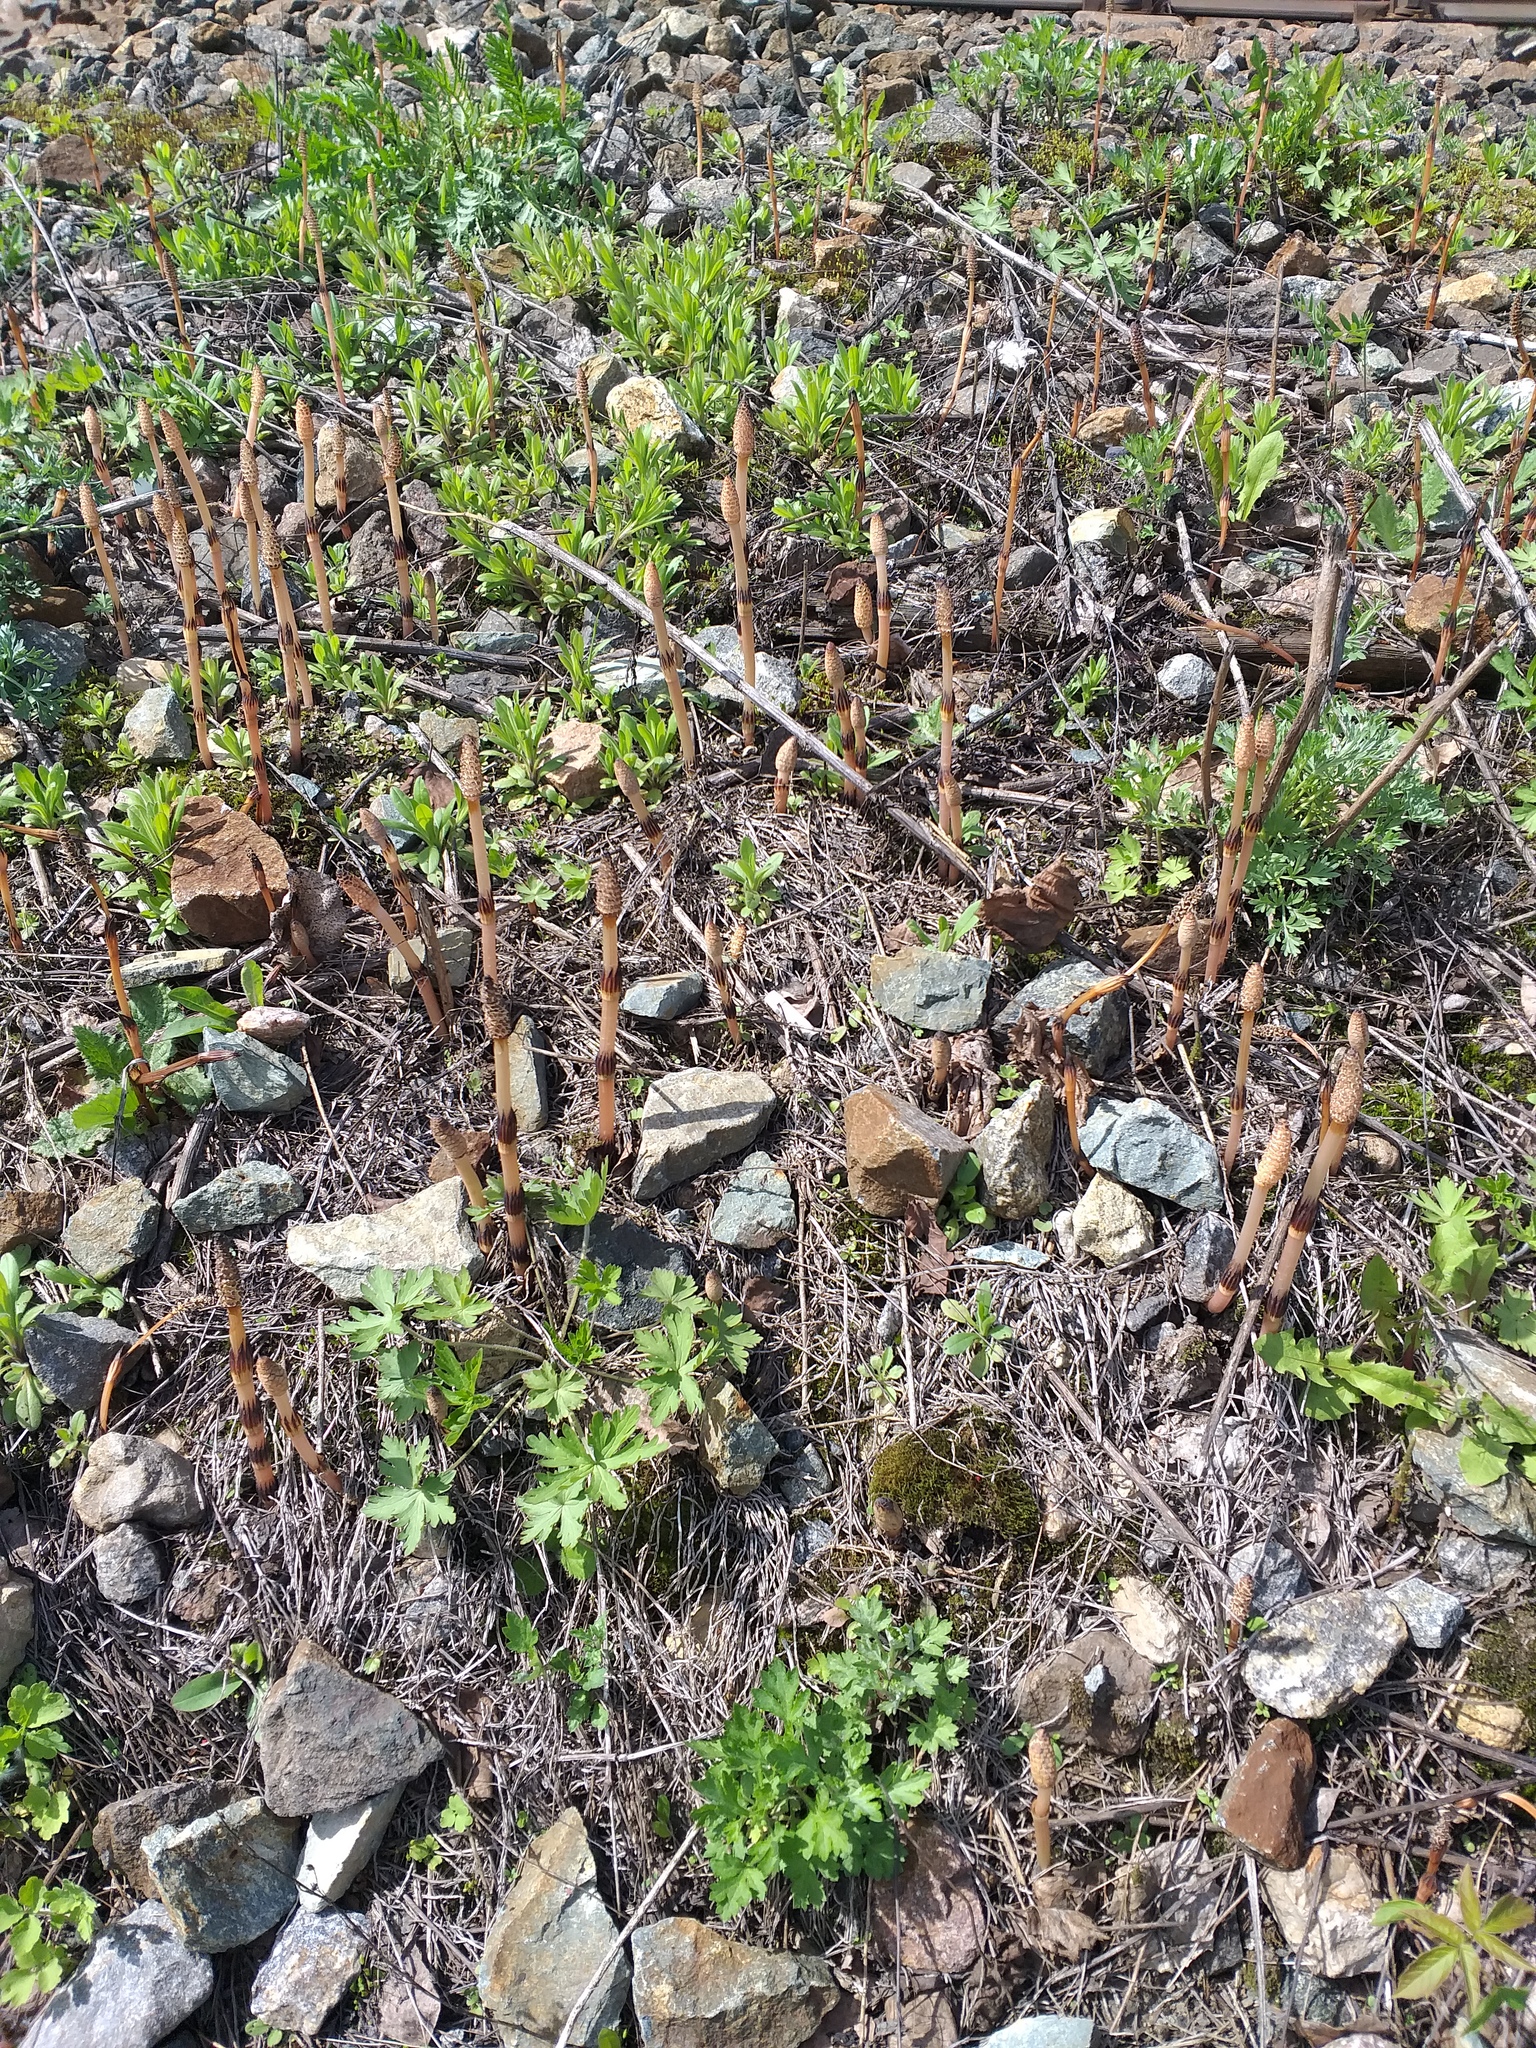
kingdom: Plantae
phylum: Tracheophyta
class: Polypodiopsida
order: Equisetales
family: Equisetaceae
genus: Equisetum
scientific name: Equisetum arvense
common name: Field horsetail
